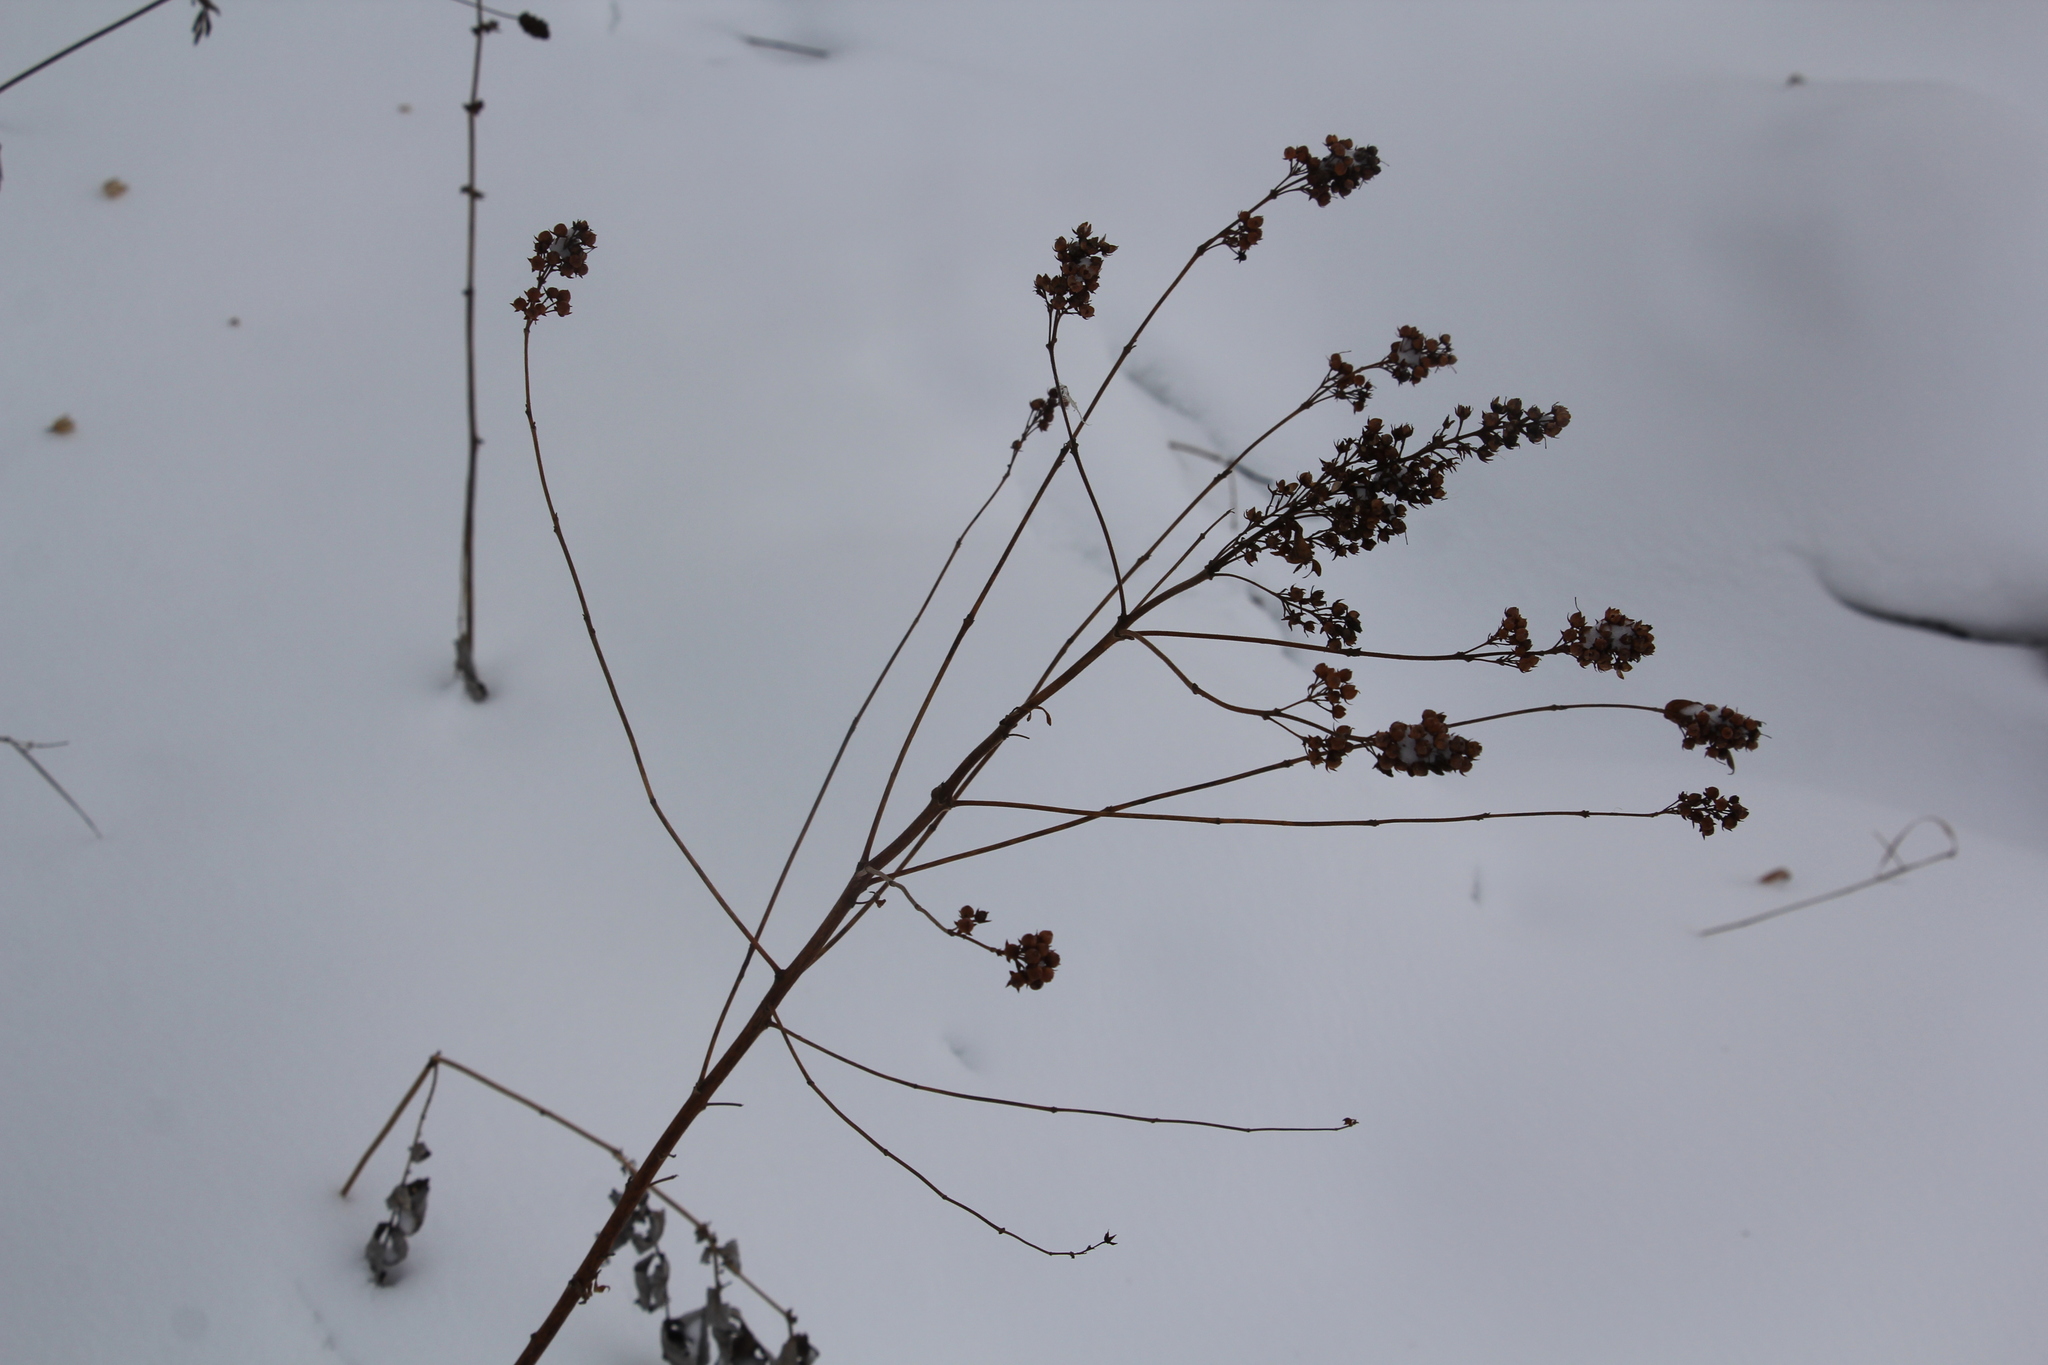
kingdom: Plantae
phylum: Tracheophyta
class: Magnoliopsida
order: Ericales
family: Primulaceae
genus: Lysimachia
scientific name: Lysimachia vulgaris
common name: Yellow loosestrife
